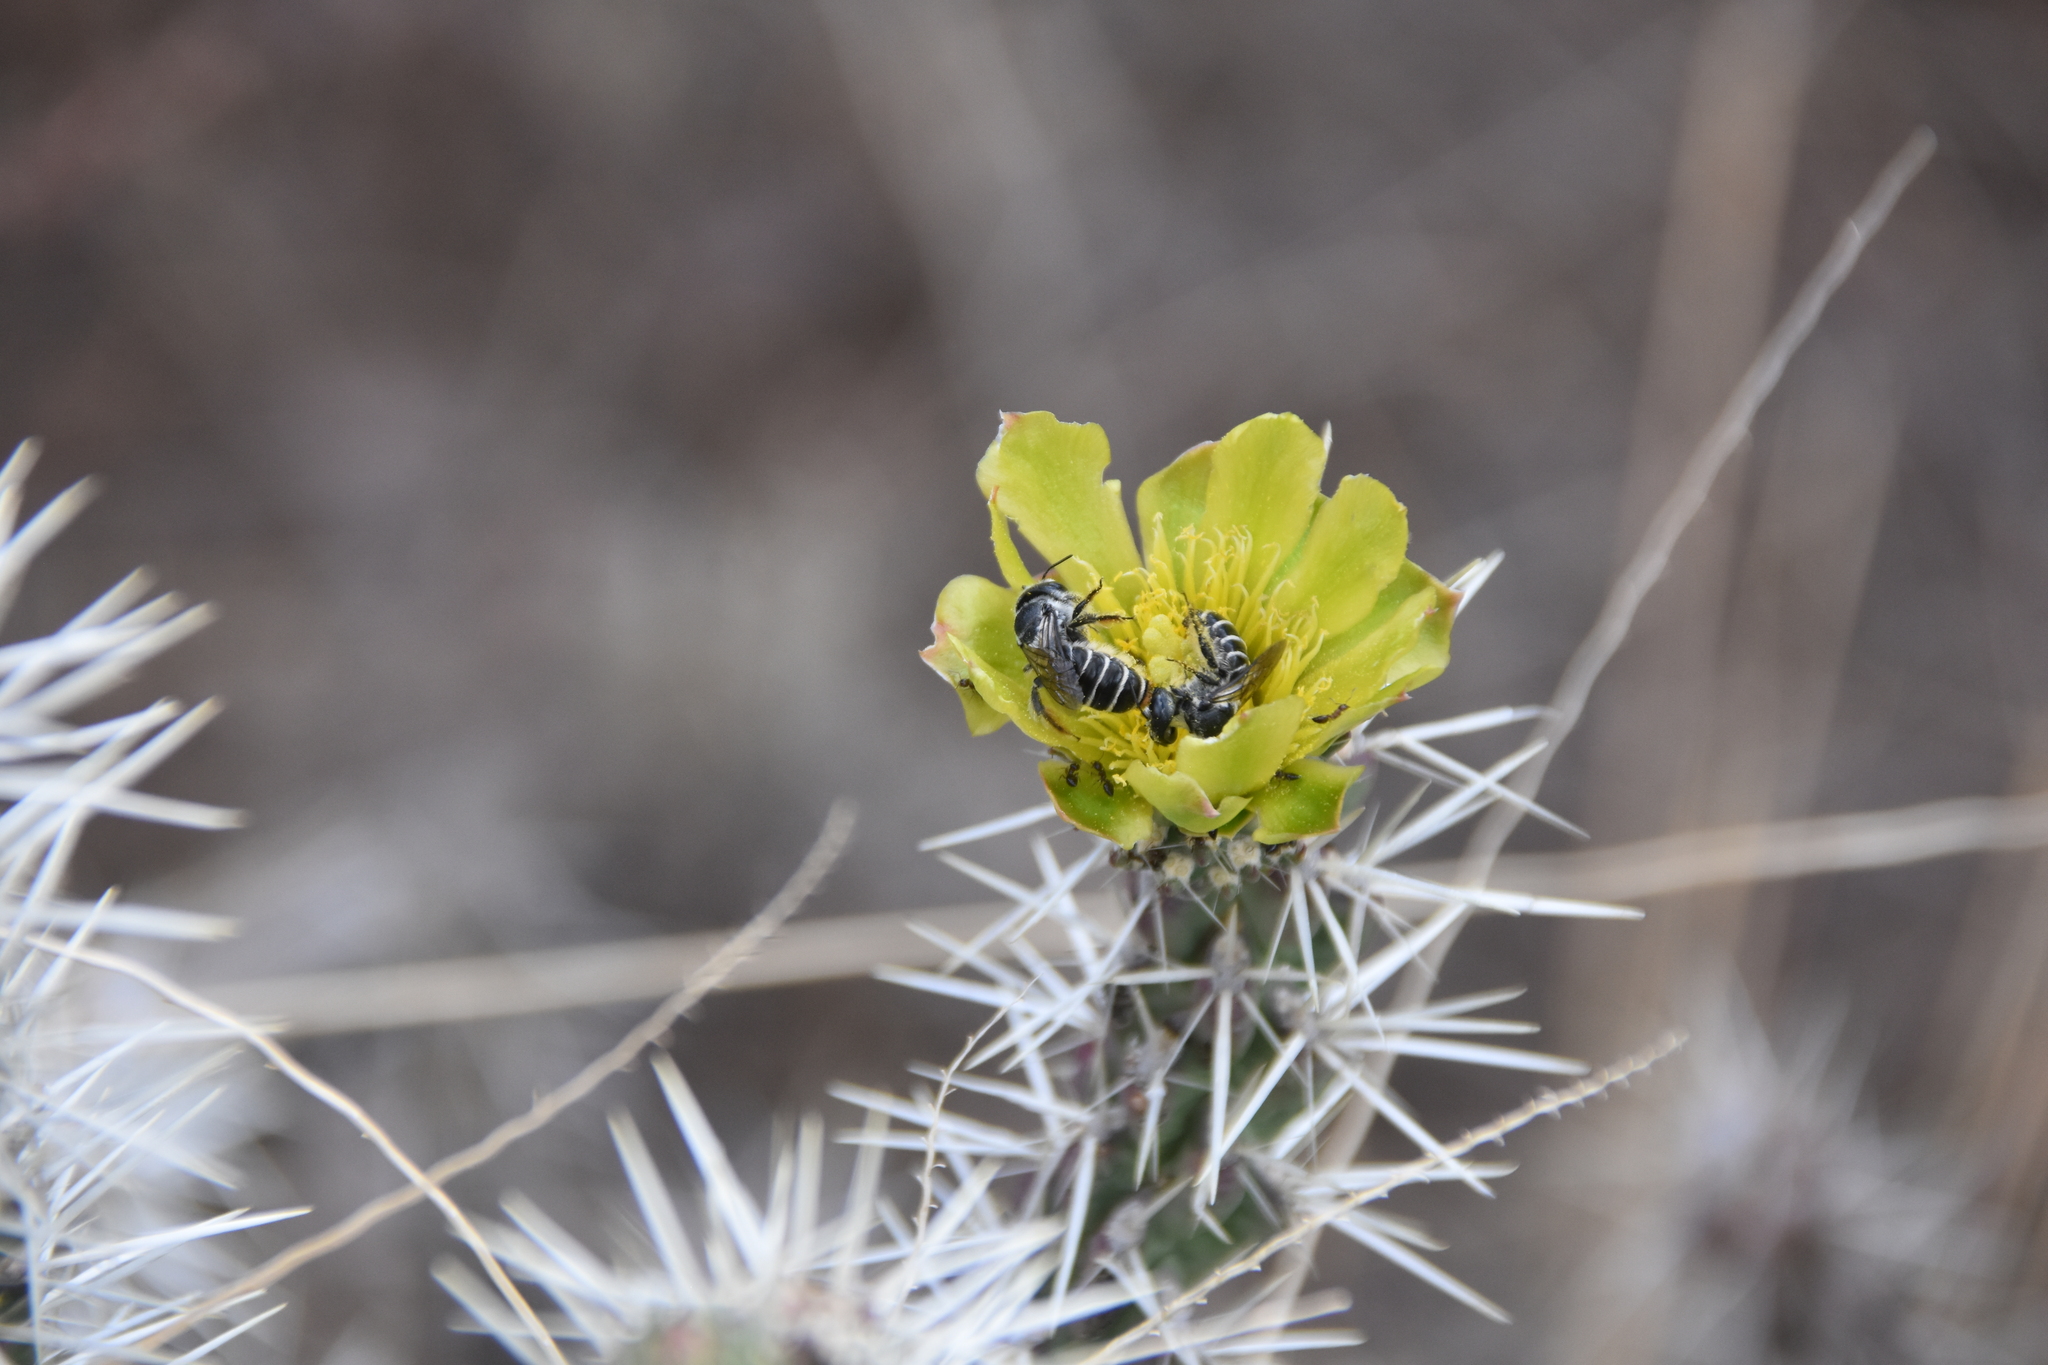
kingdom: Animalia
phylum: Arthropoda
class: Insecta
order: Hymenoptera
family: Megachilidae
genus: Lithurgopsis
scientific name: Lithurgopsis apicalis
